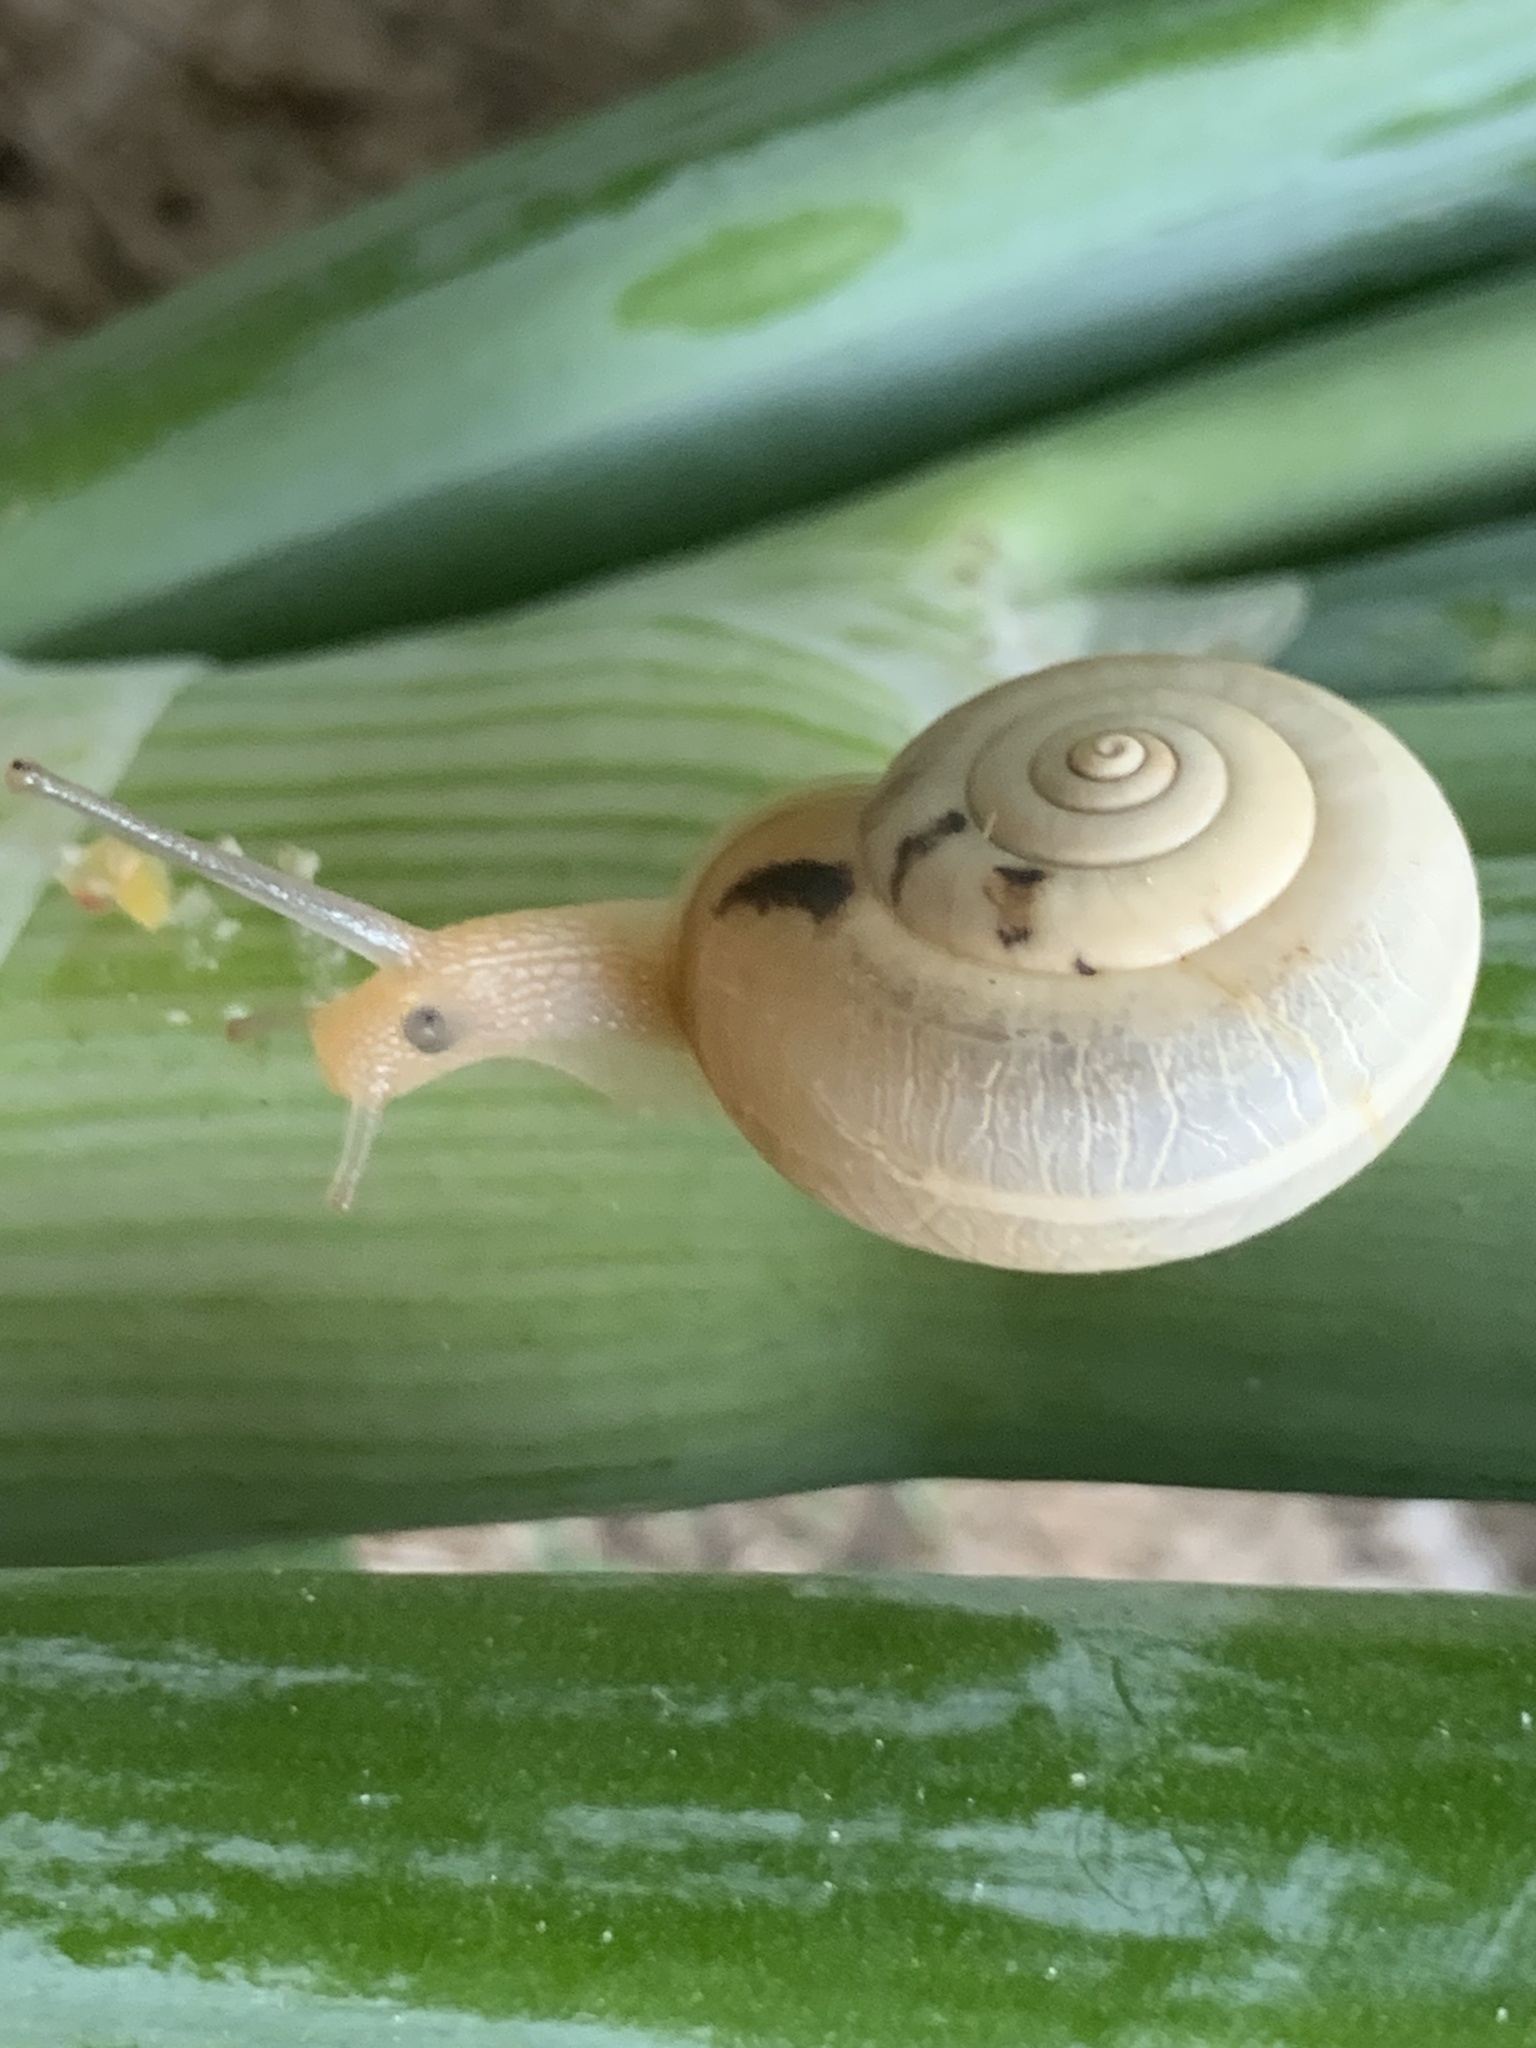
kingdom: Animalia
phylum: Mollusca
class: Gastropoda
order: Stylommatophora
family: Hygromiidae
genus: Monacha
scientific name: Monacha cartusiana
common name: Carthusian snail
